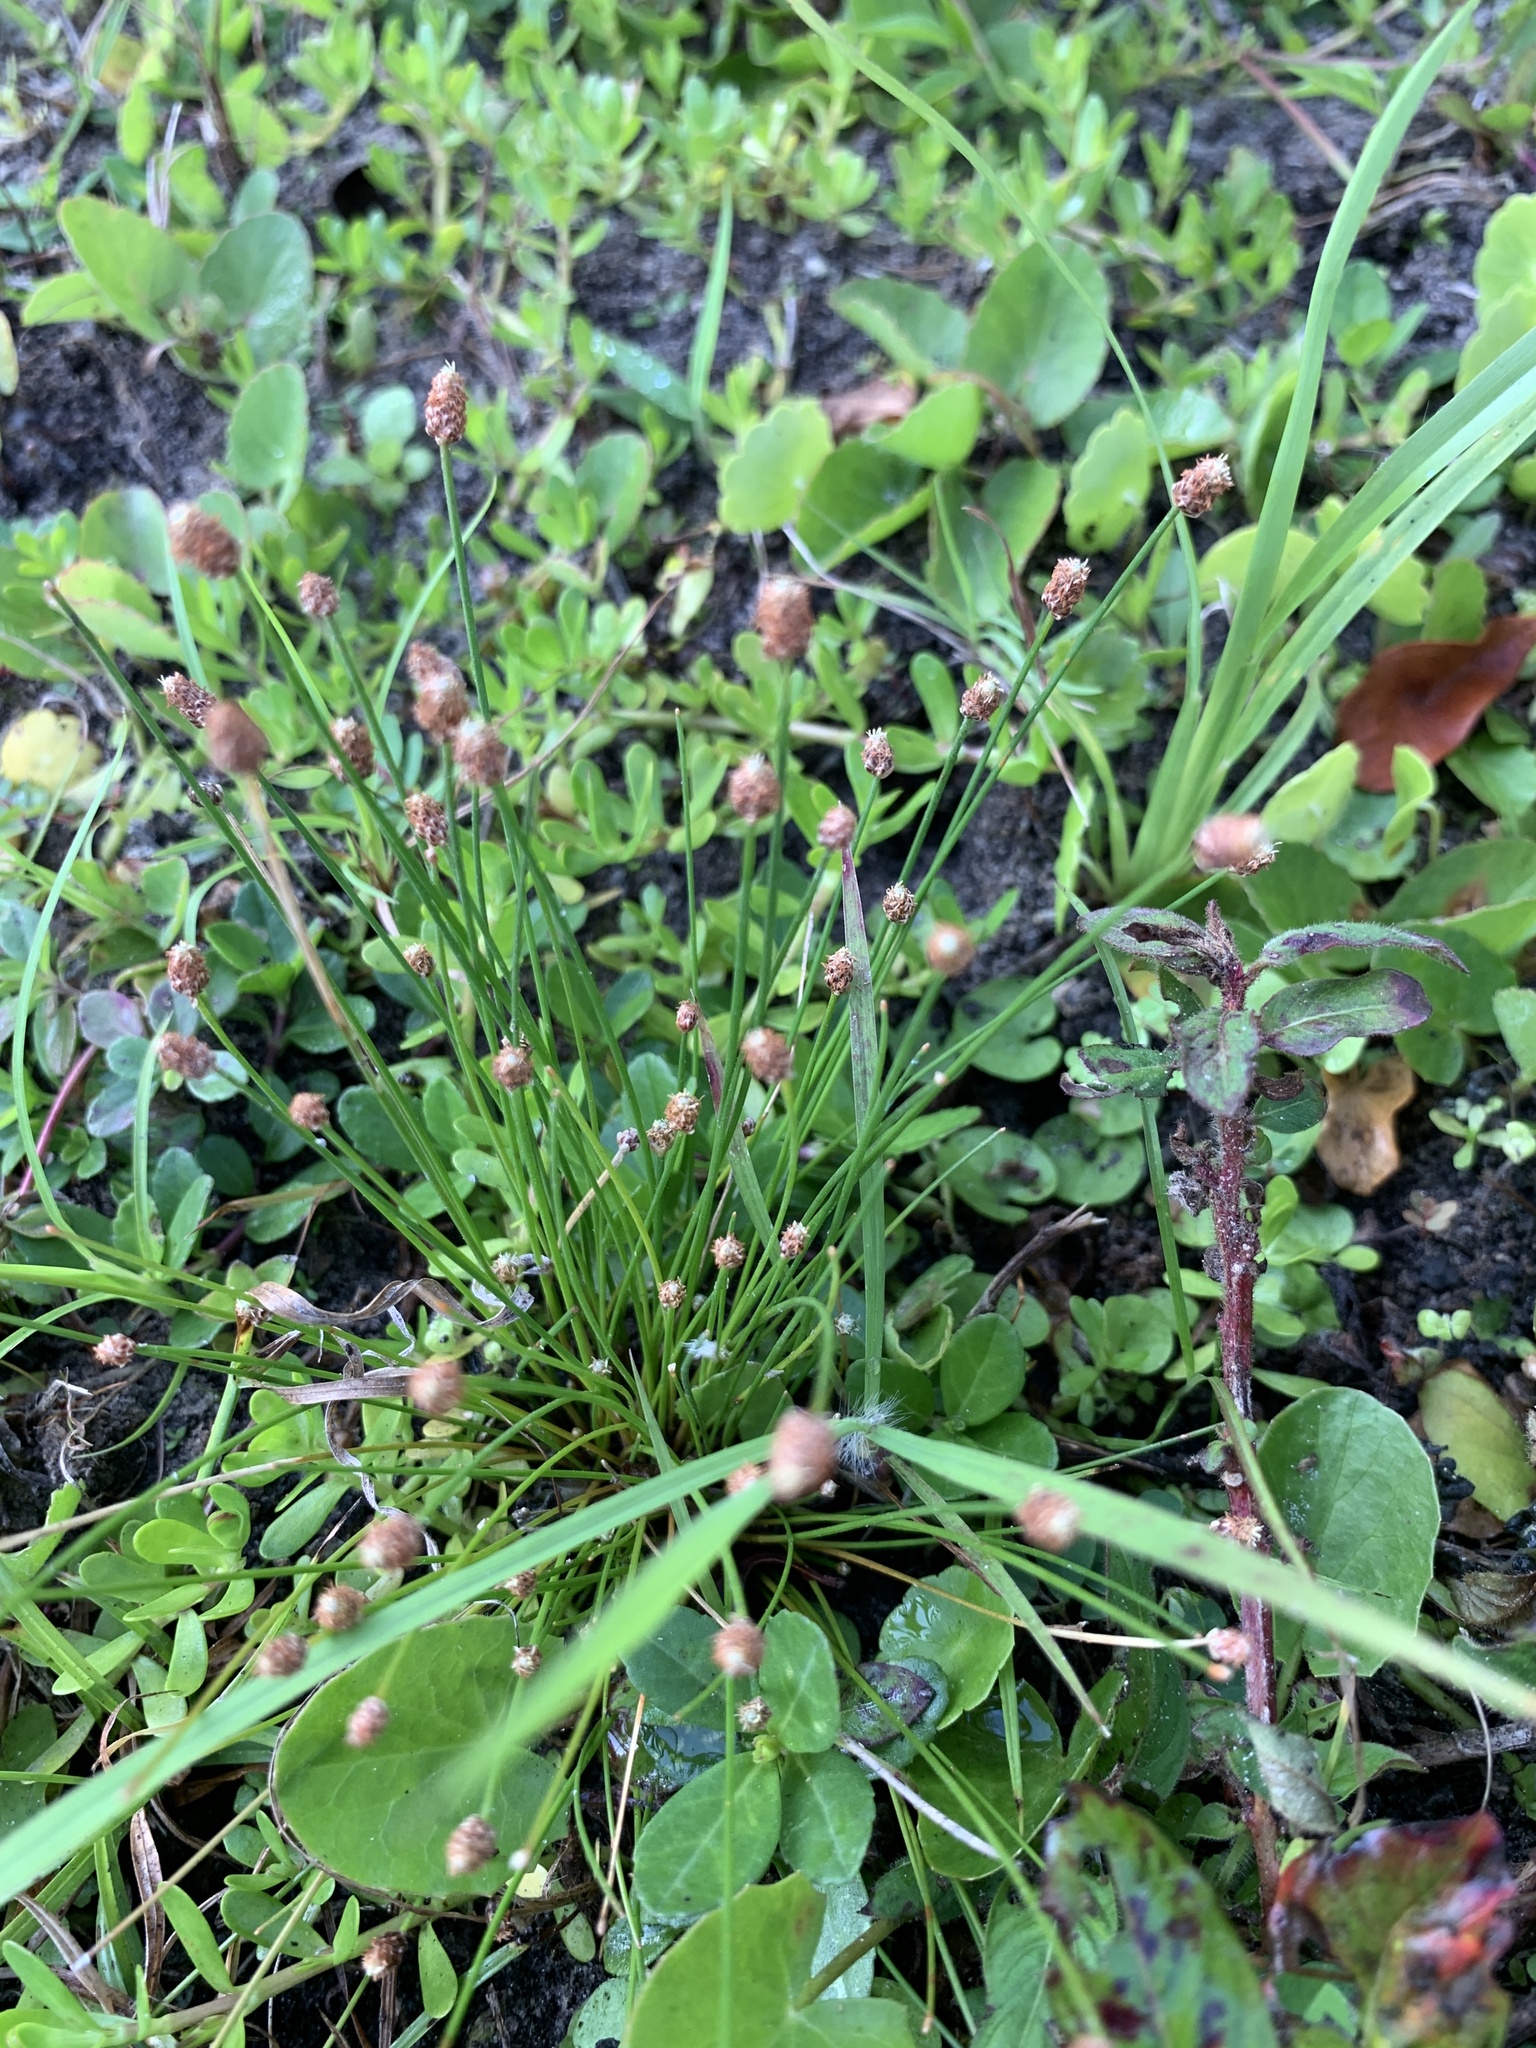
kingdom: Plantae
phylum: Tracheophyta
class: Liliopsida
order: Poales
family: Cyperaceae
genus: Eleocharis
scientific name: Eleocharis geniculata
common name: Canada spikesedge
